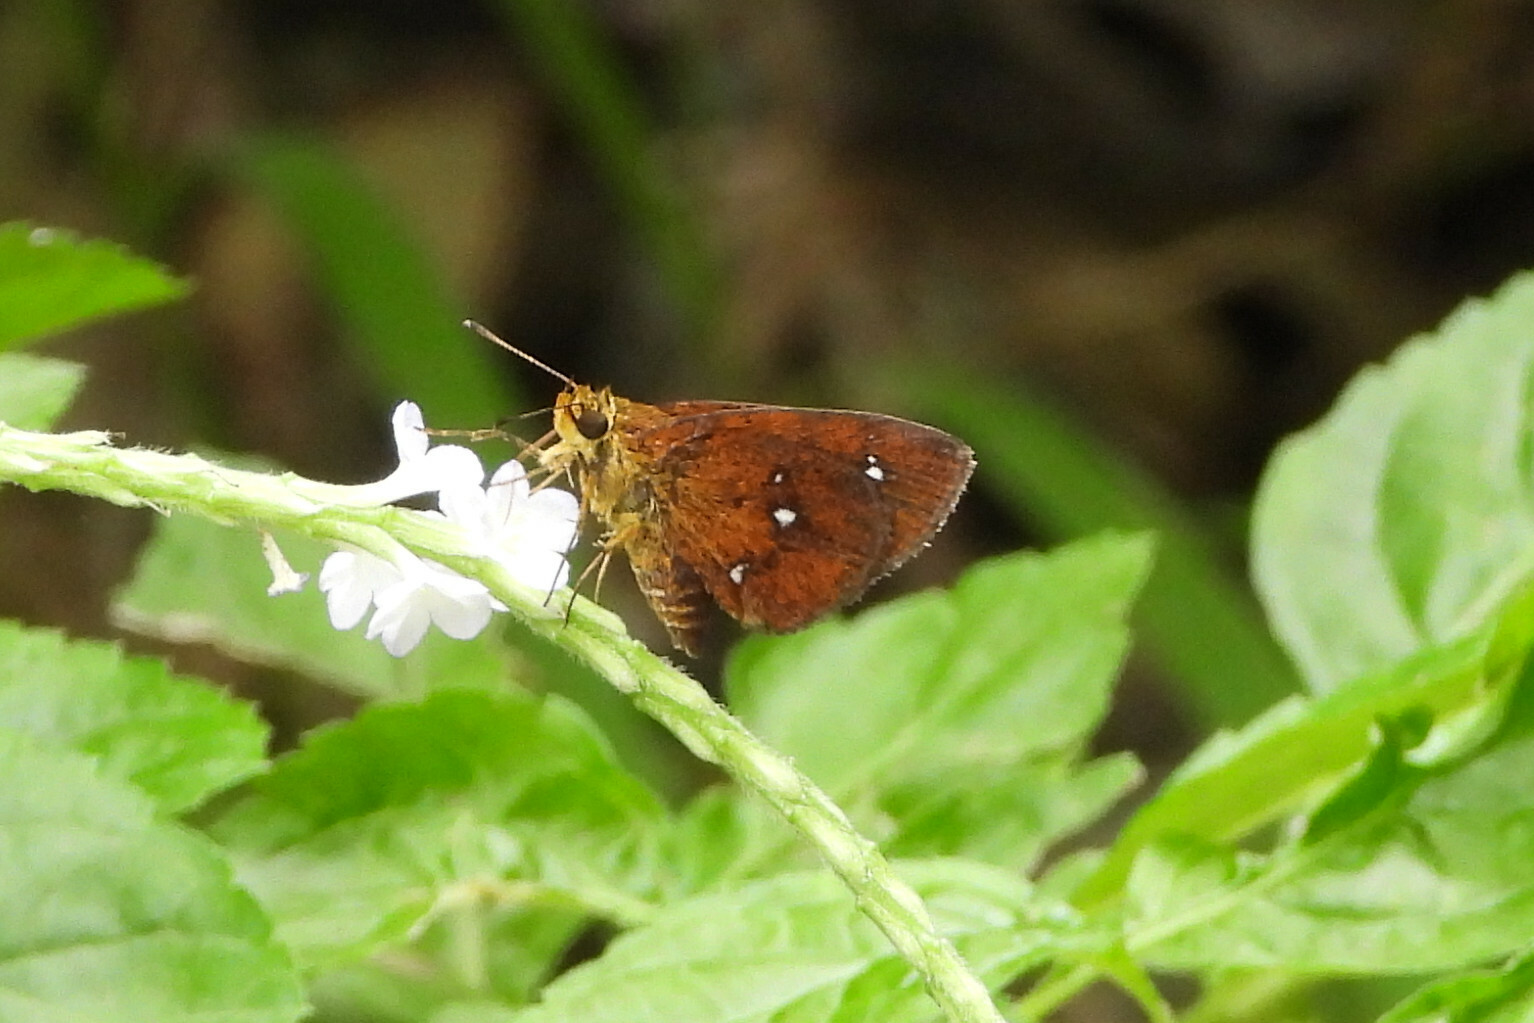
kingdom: Animalia
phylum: Arthropoda
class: Insecta
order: Lepidoptera
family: Hesperiidae
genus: Iambrix
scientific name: Iambrix salsala
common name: Chestnut bob
